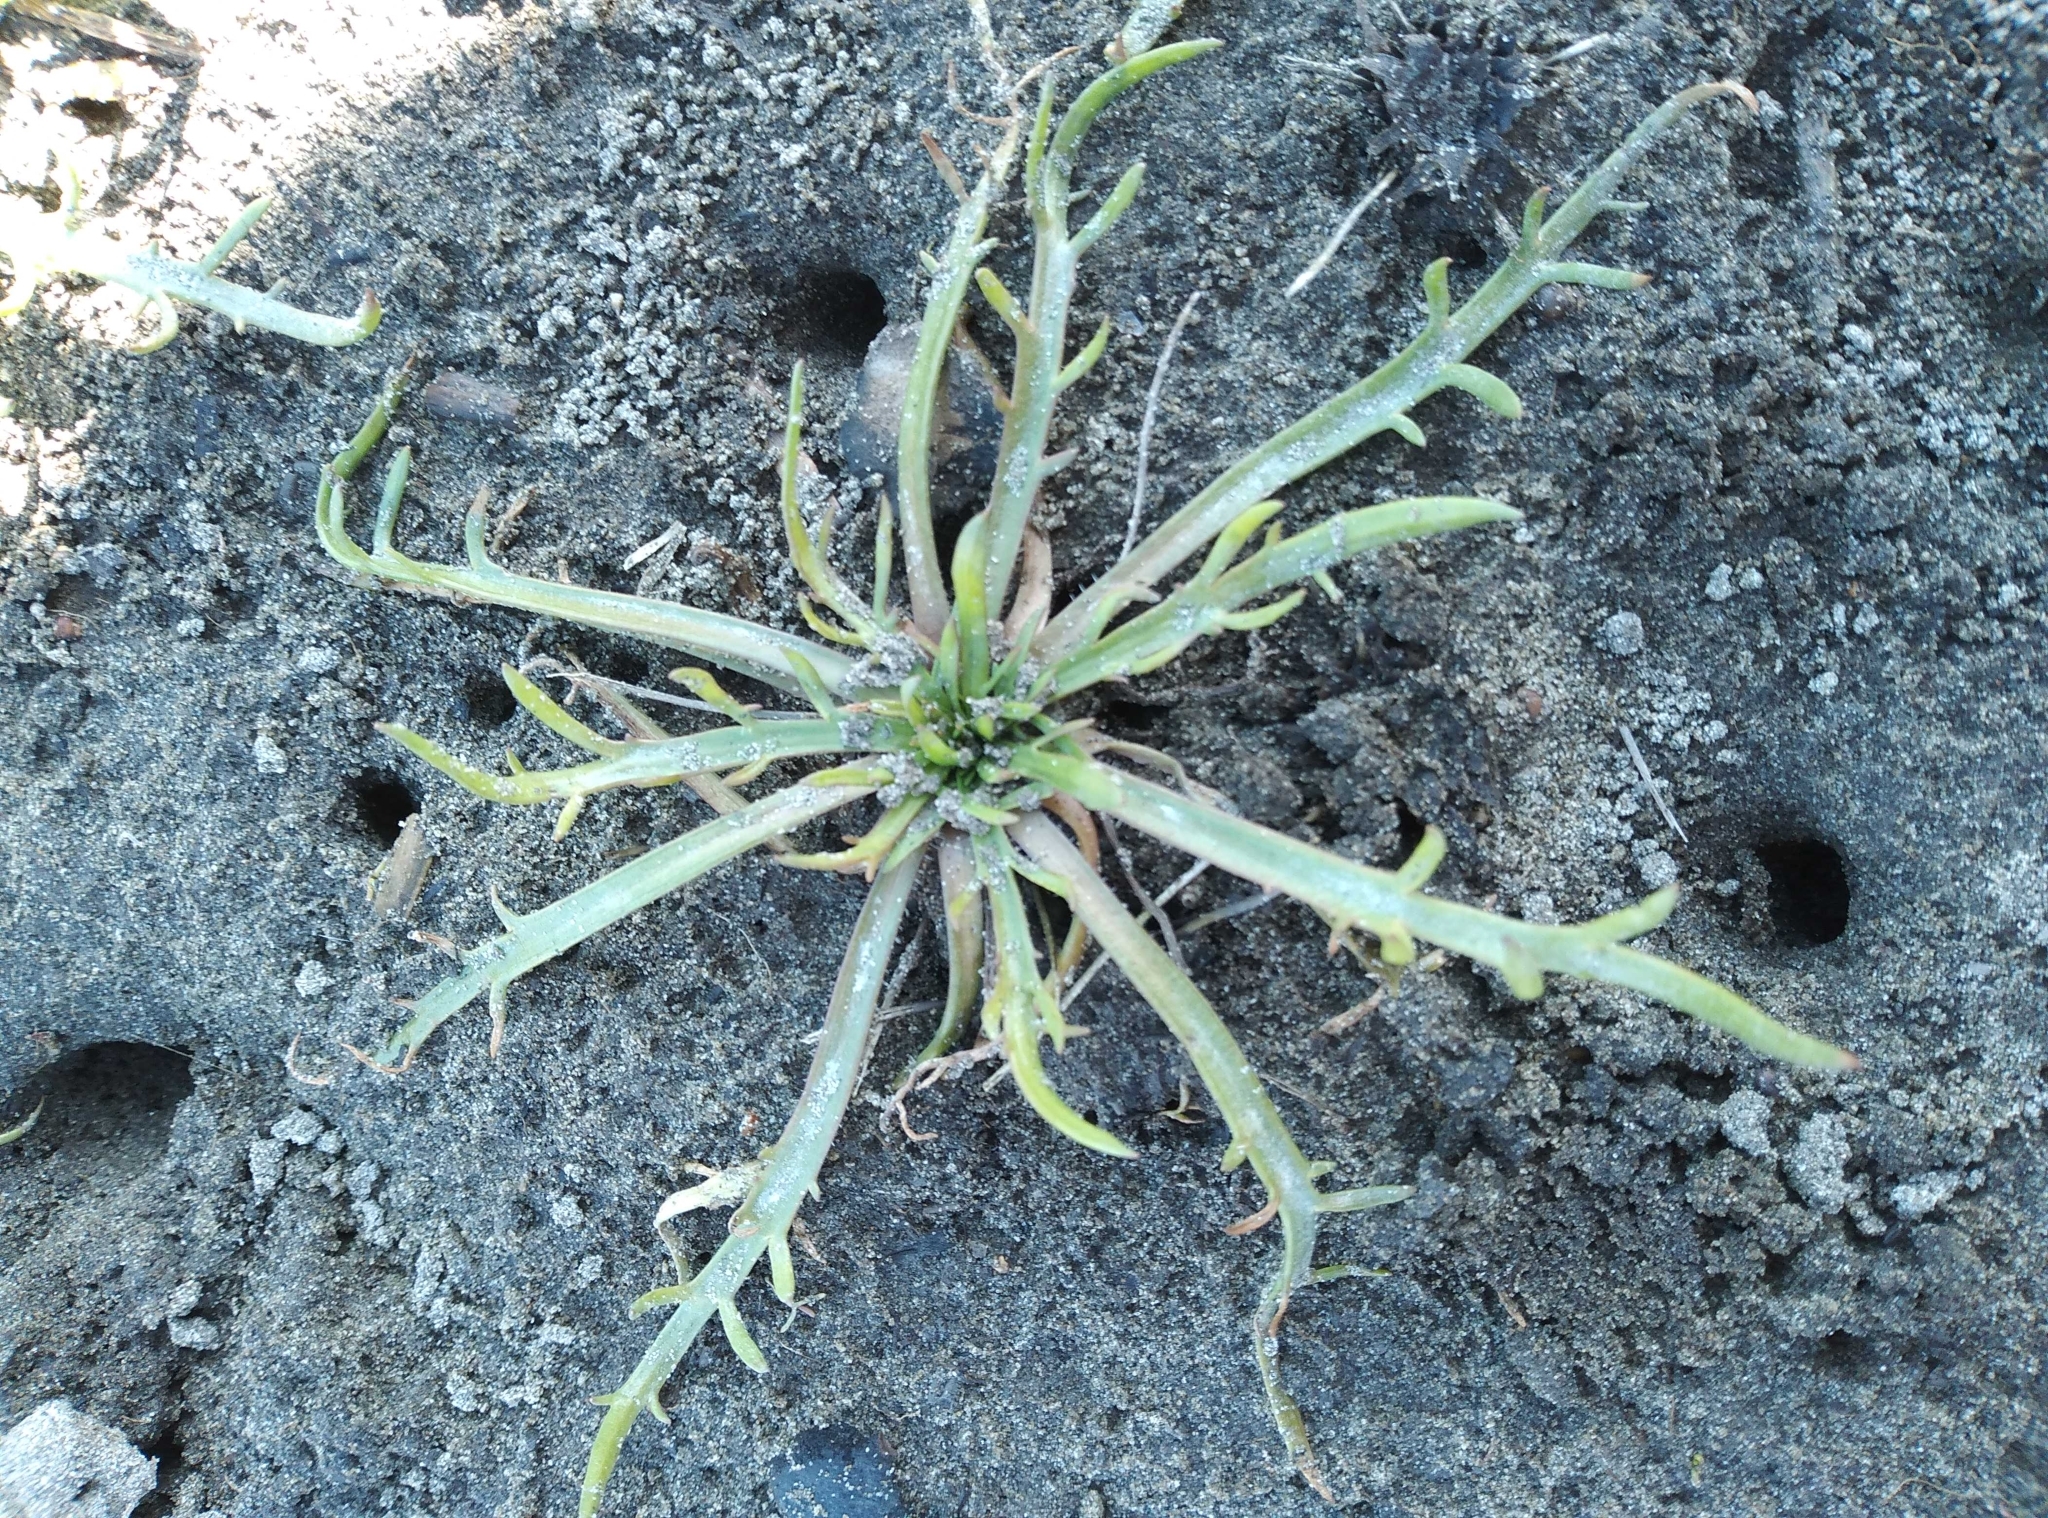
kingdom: Plantae
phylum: Tracheophyta
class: Magnoliopsida
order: Lamiales
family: Plantaginaceae
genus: Plantago
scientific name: Plantago coronopus
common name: Buck's-horn plantain
